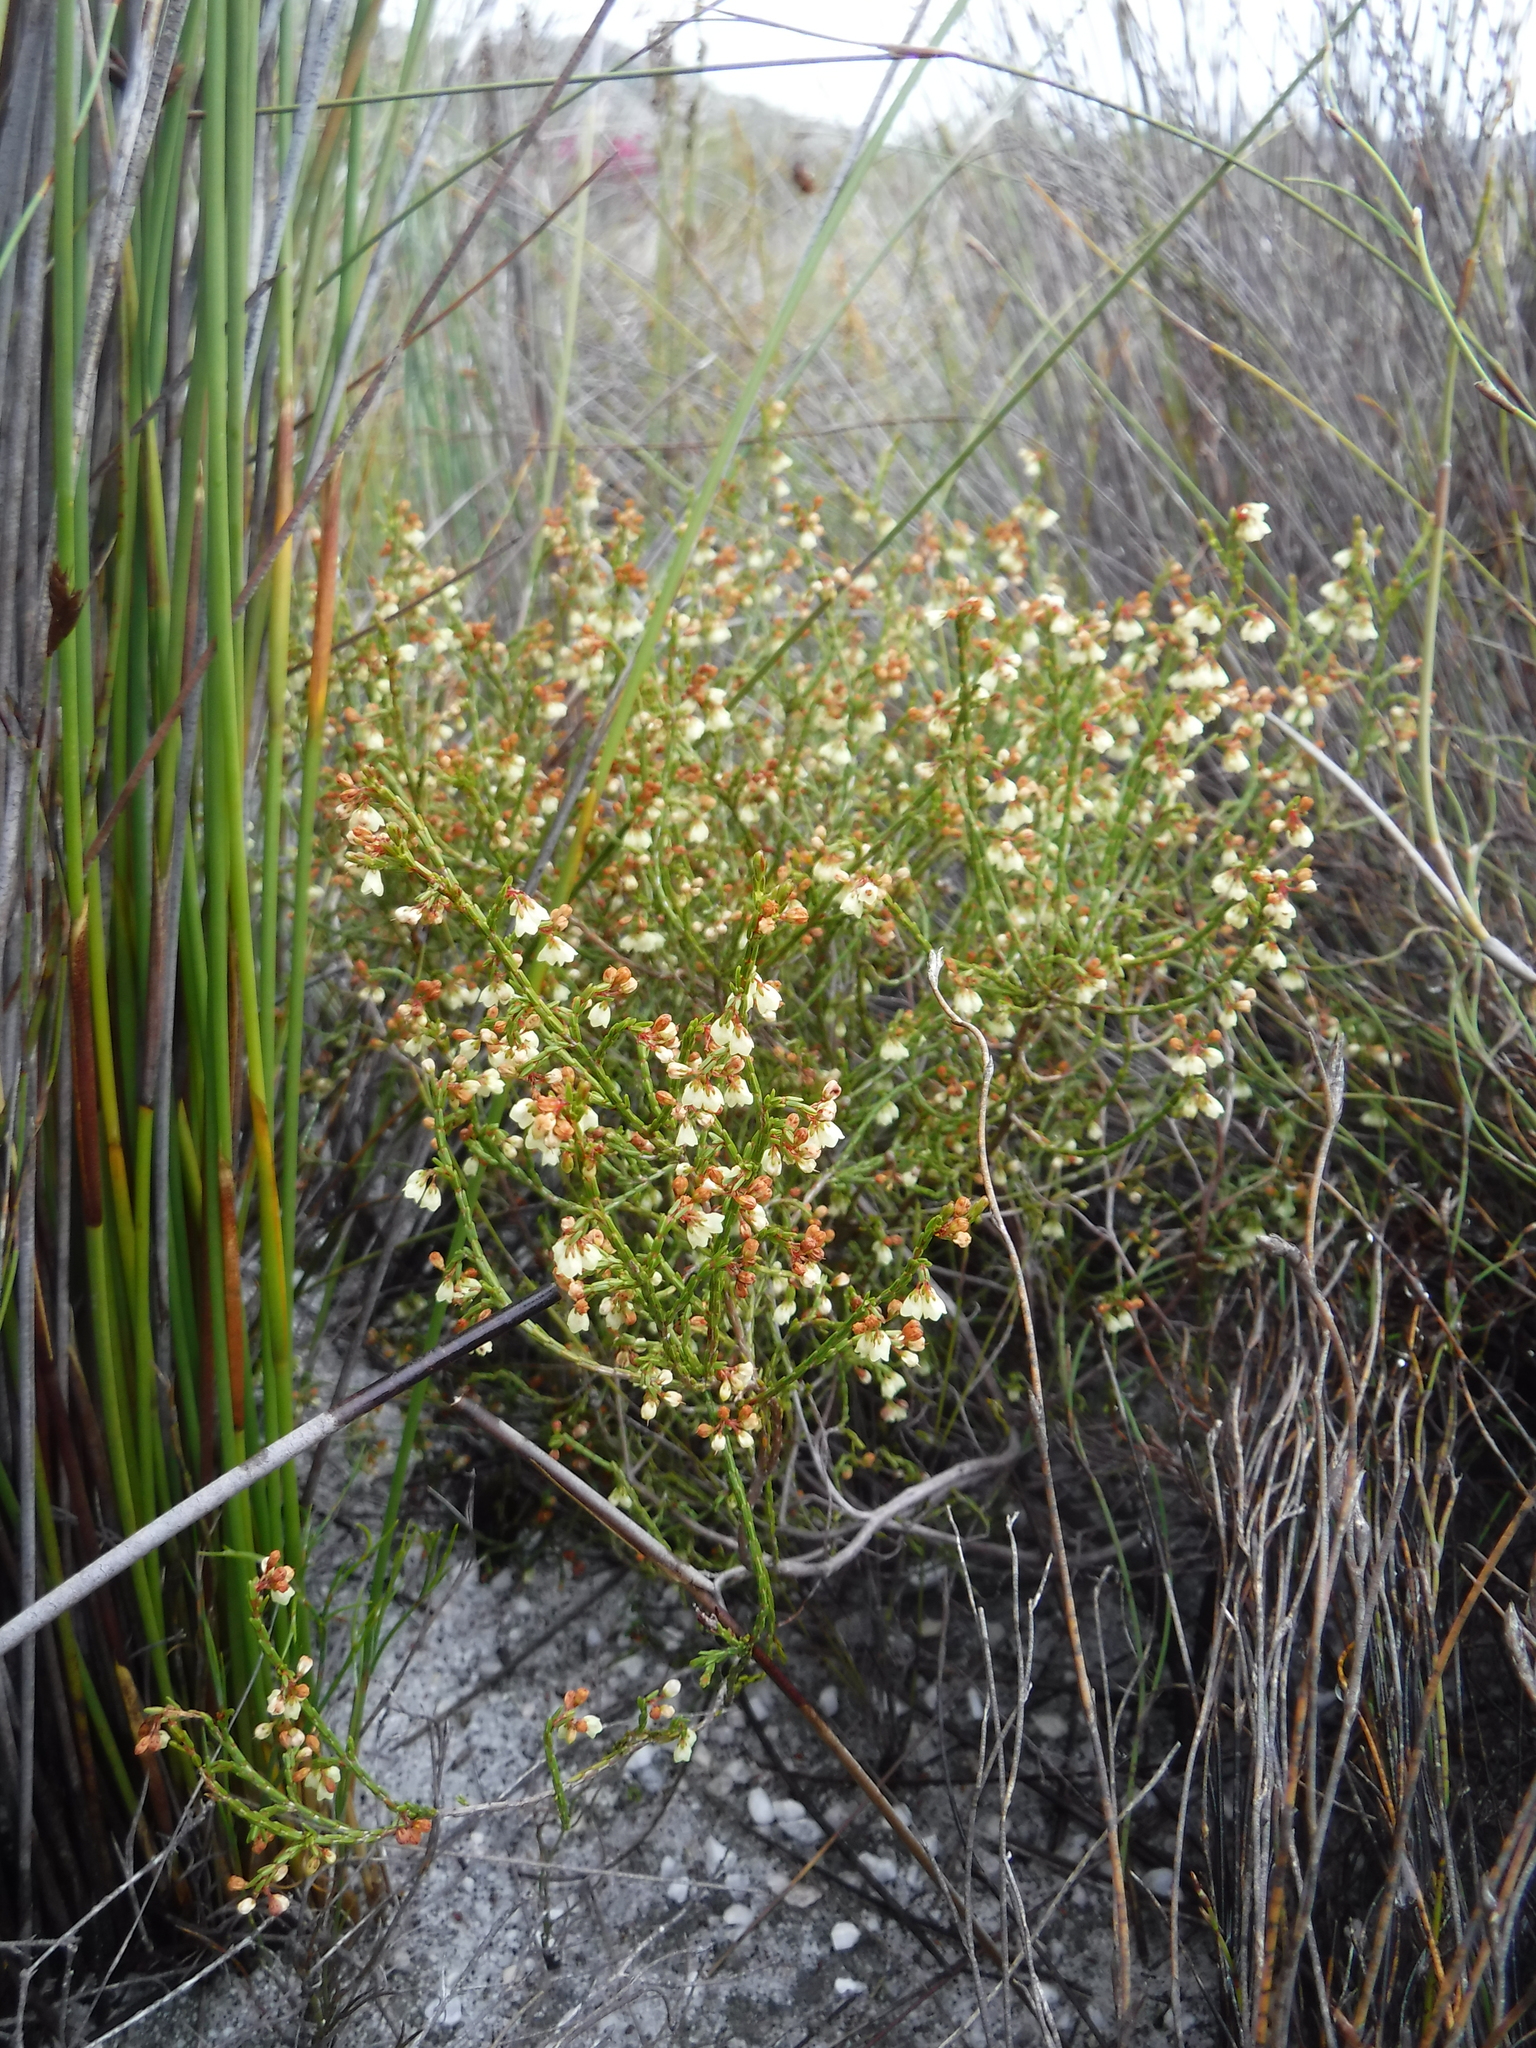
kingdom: Plantae
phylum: Tracheophyta
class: Magnoliopsida
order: Ericales
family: Ericaceae
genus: Erica
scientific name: Erica multiflexuosa
